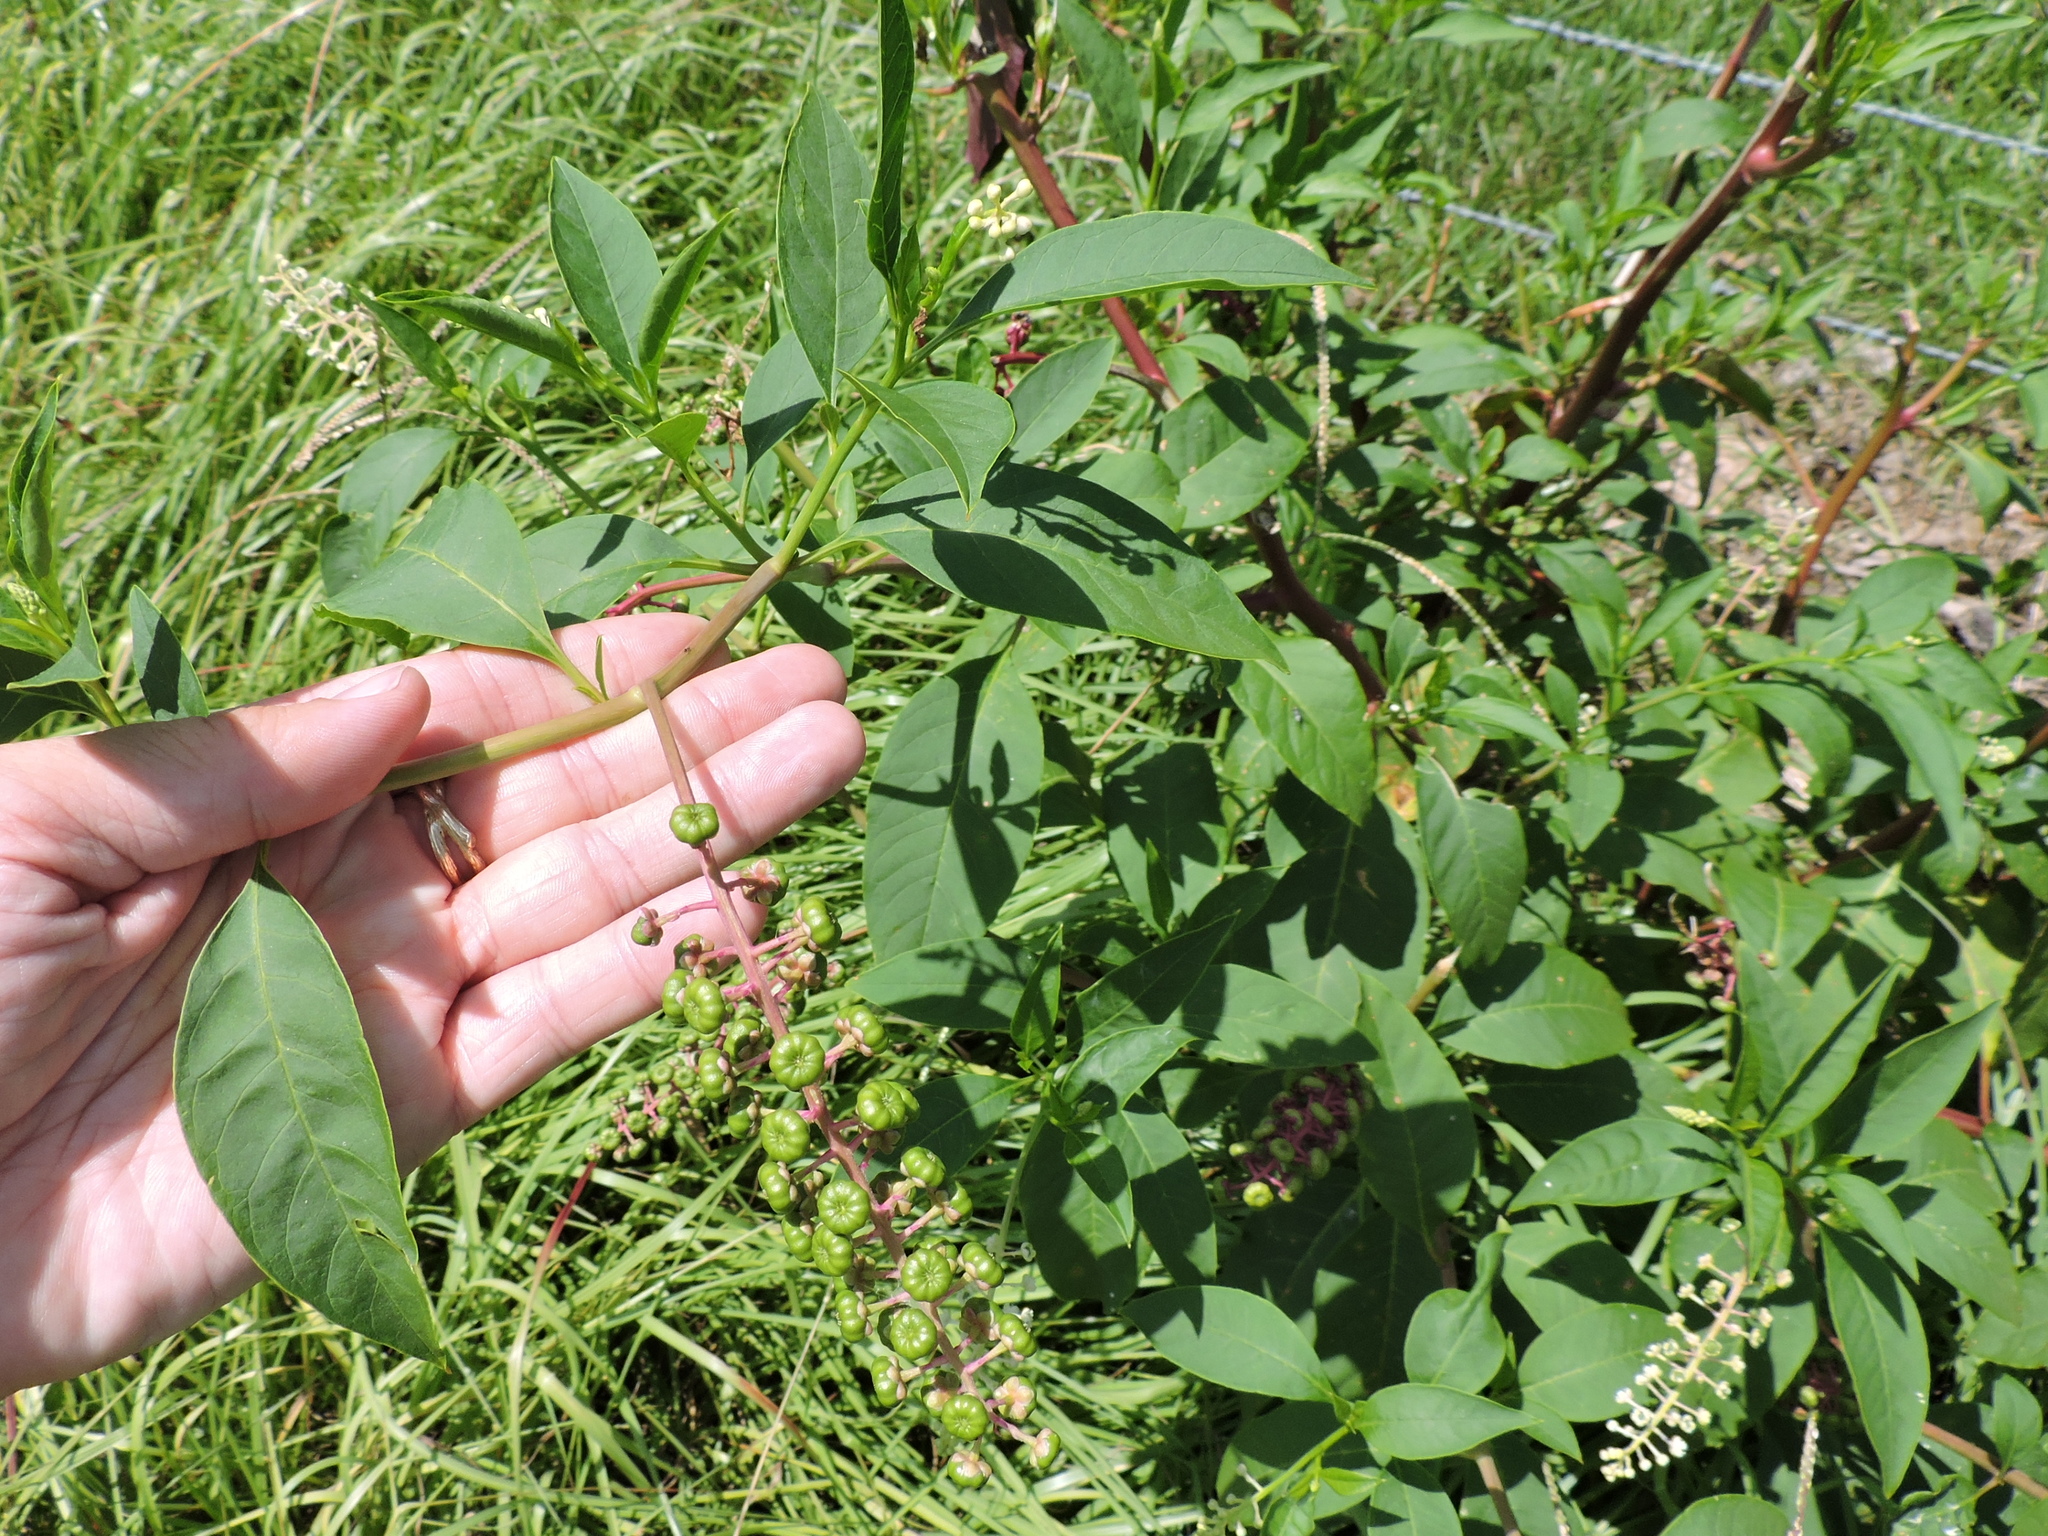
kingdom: Plantae
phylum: Tracheophyta
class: Magnoliopsida
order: Caryophyllales
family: Phytolaccaceae
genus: Phytolacca
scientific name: Phytolacca americana
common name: American pokeweed
